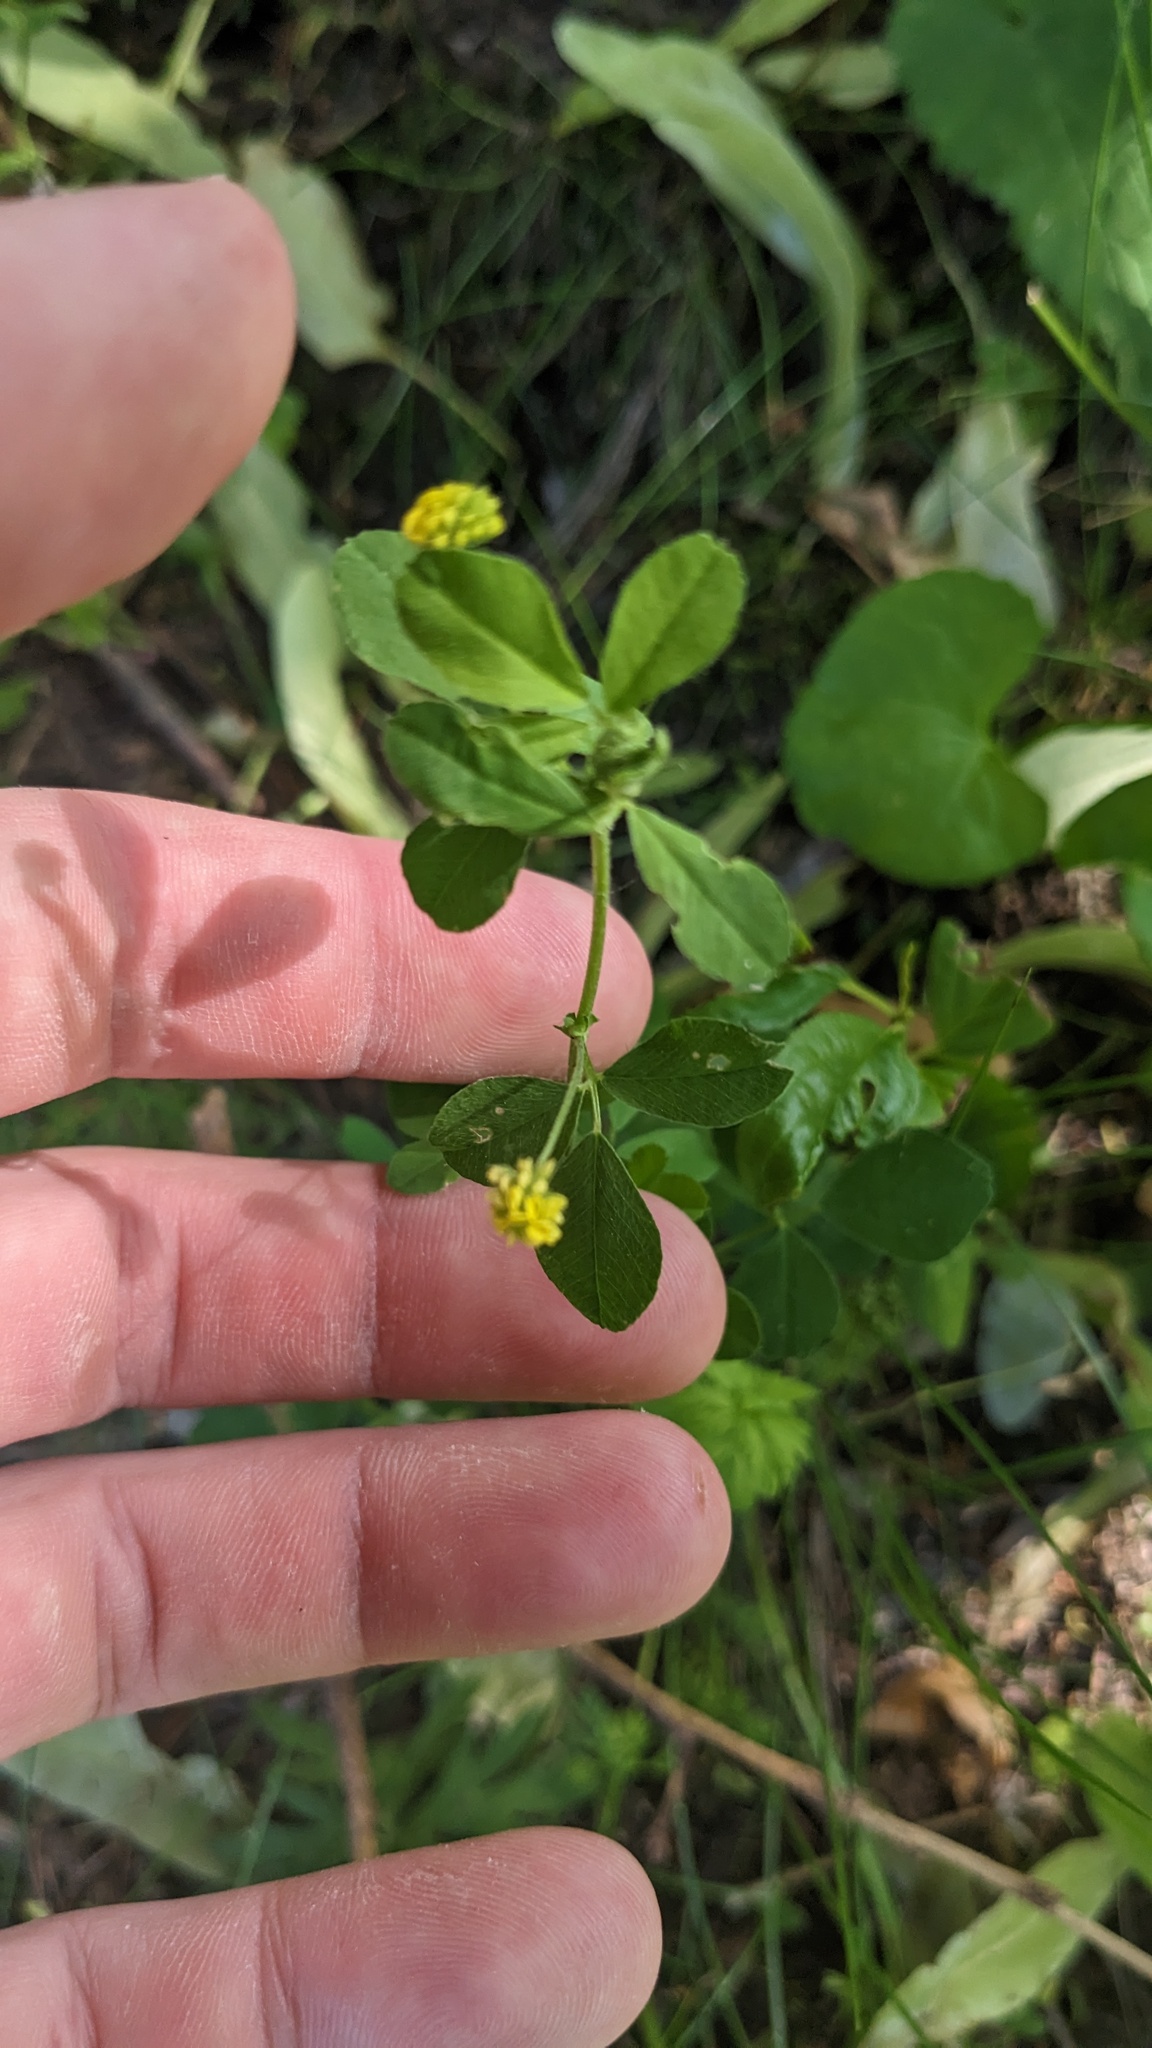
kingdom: Plantae
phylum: Tracheophyta
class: Magnoliopsida
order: Fabales
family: Fabaceae
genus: Medicago
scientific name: Medicago lupulina
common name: Black medick
